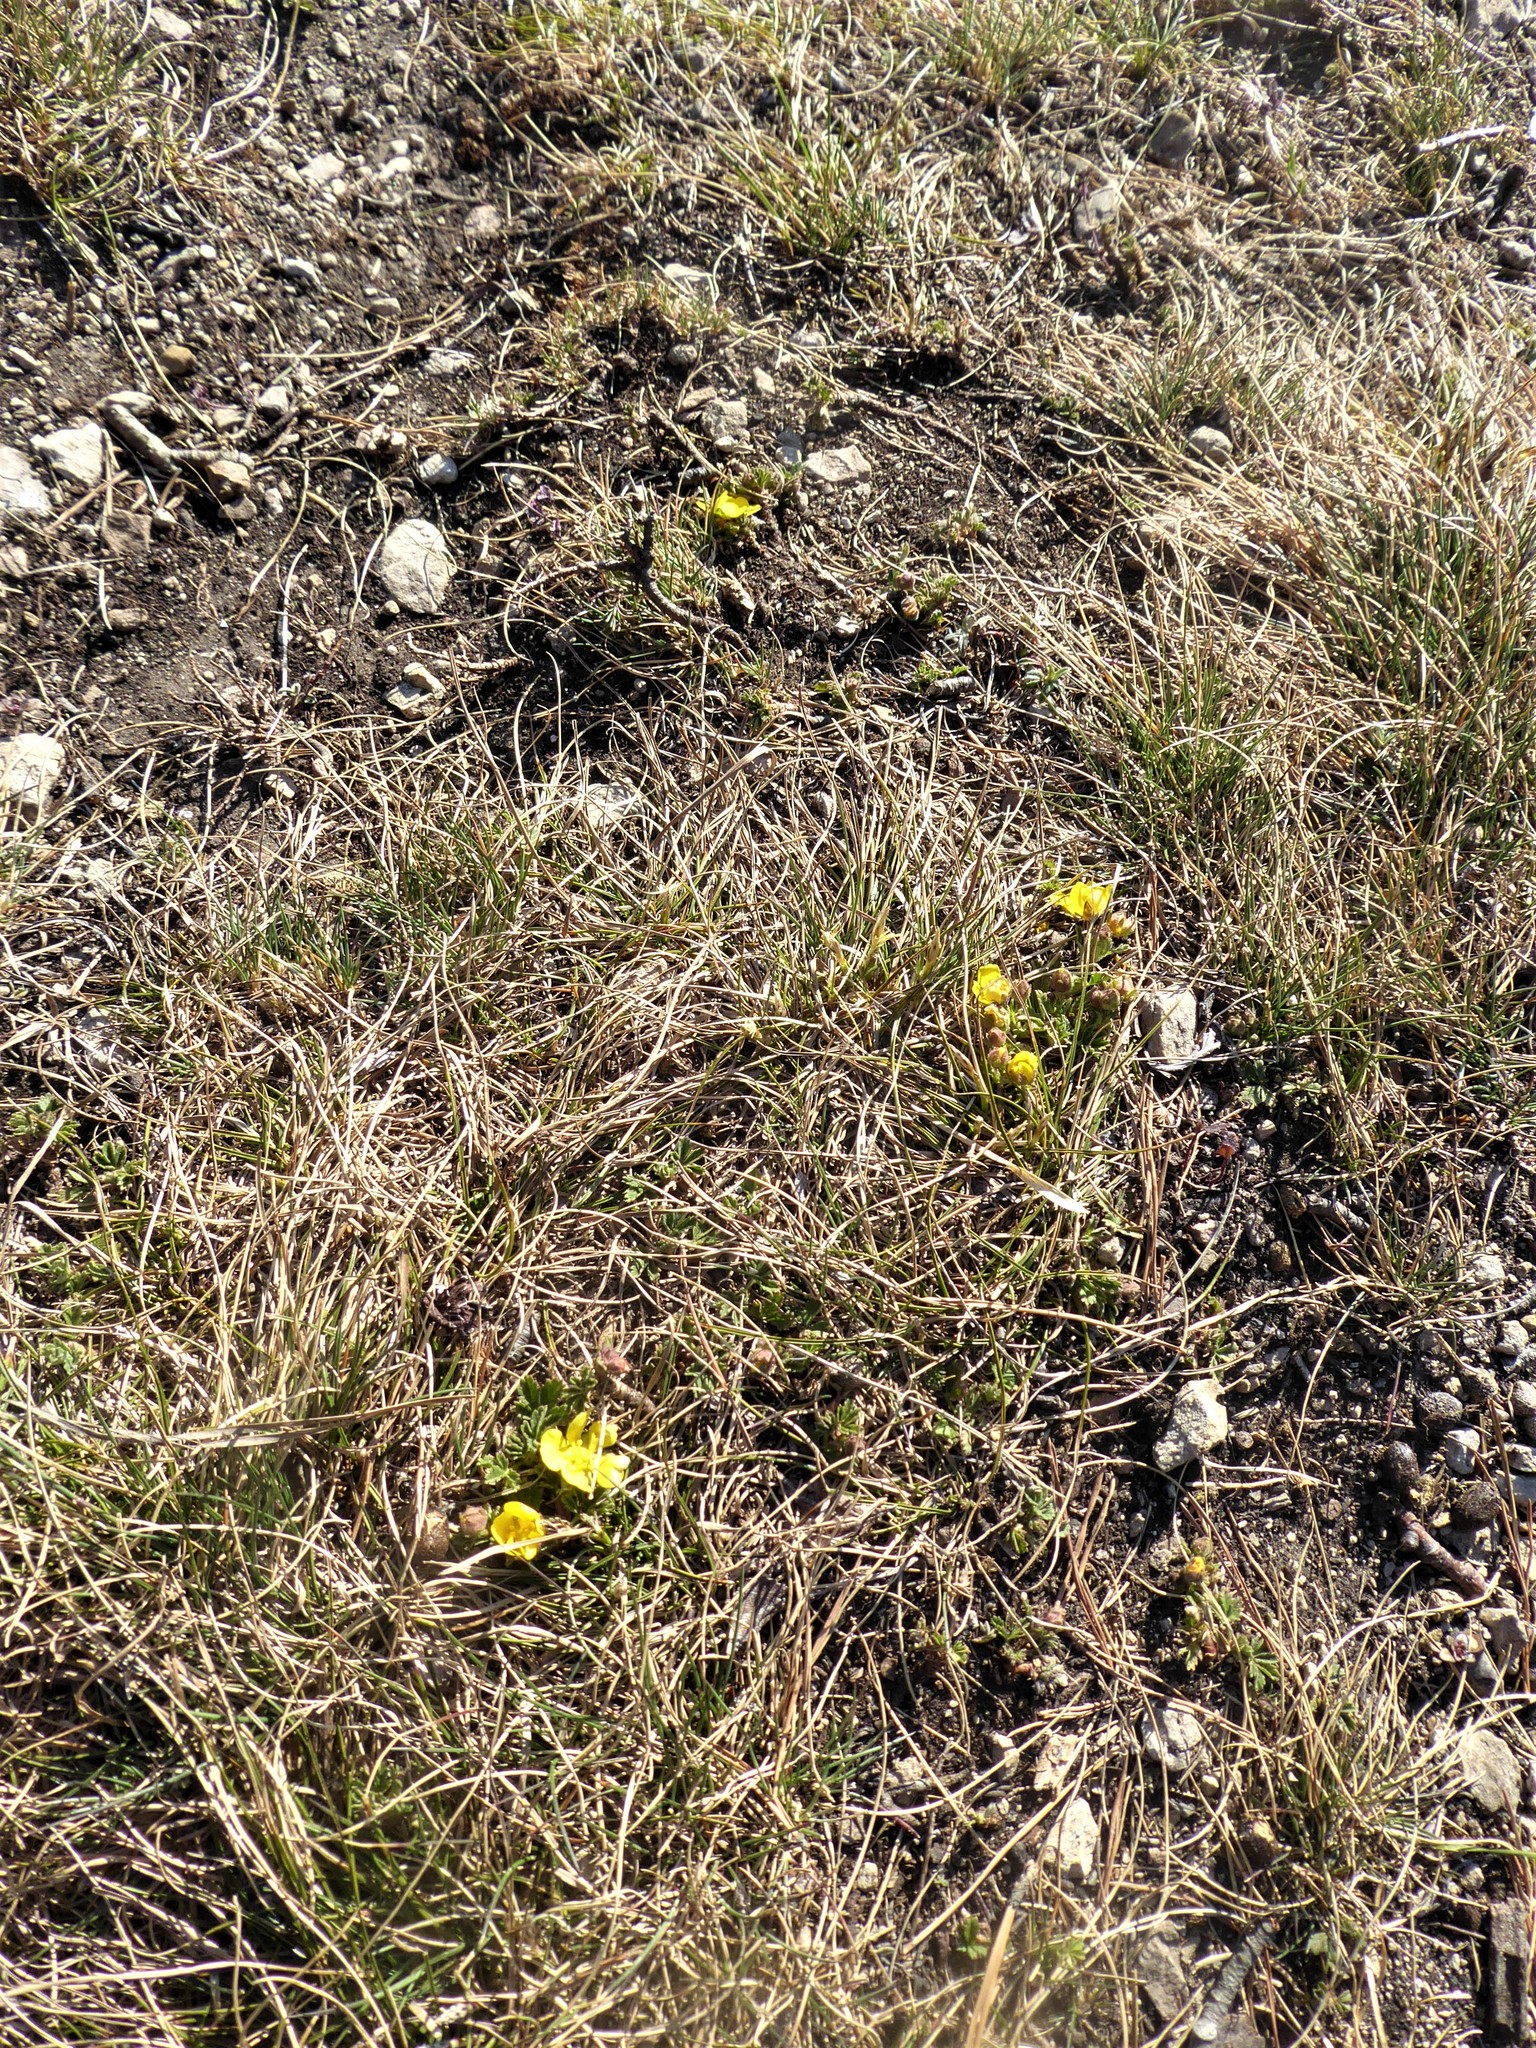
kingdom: Plantae
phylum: Tracheophyta
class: Magnoliopsida
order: Rosales
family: Rosaceae
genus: Potentilla
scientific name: Potentilla incana
